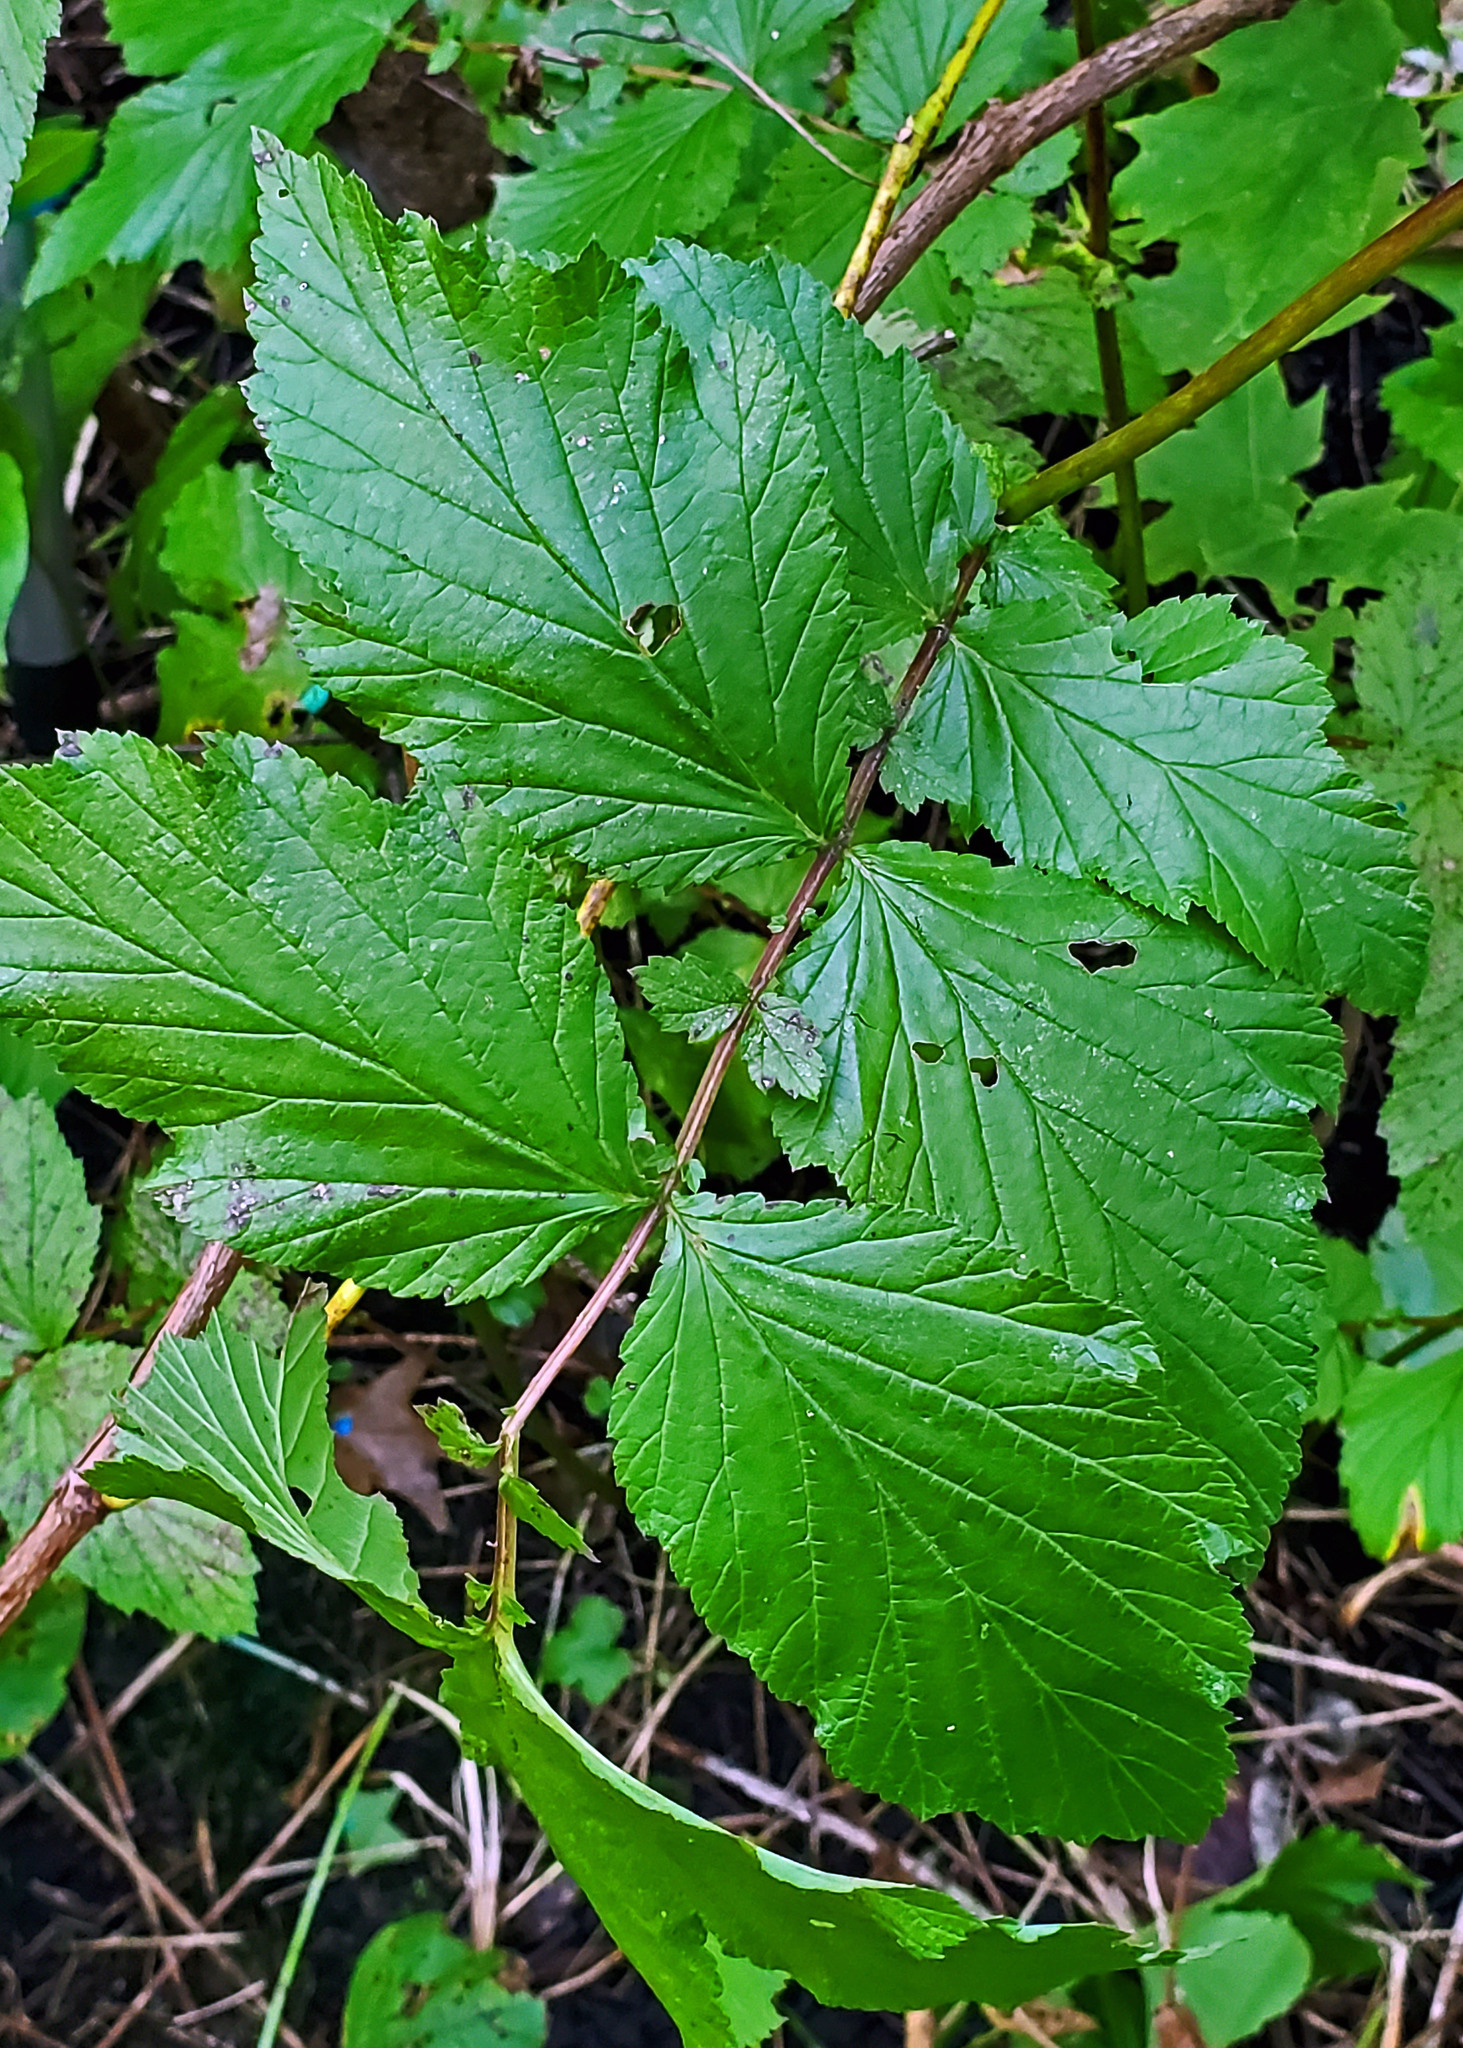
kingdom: Plantae
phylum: Tracheophyta
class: Magnoliopsida
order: Rosales
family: Rosaceae
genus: Filipendula
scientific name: Filipendula ulmaria
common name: Meadowsweet
